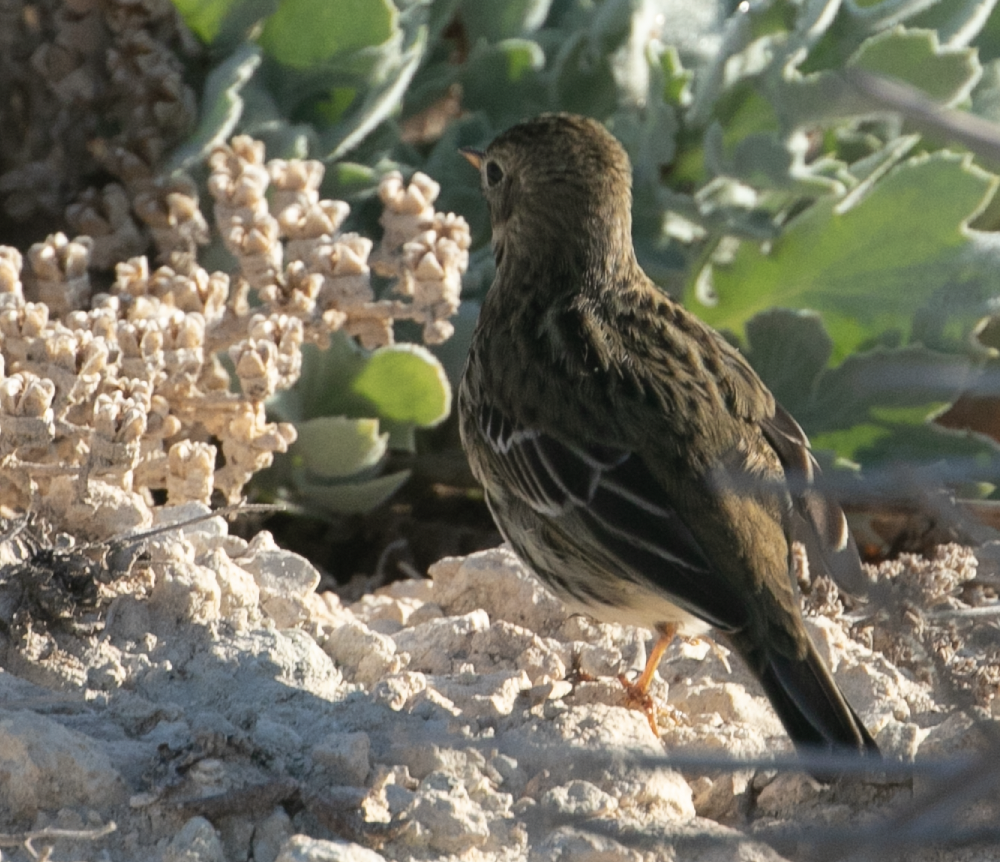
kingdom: Animalia
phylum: Chordata
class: Aves
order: Passeriformes
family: Motacillidae
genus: Anthus
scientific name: Anthus pratensis
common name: Meadow pipit
